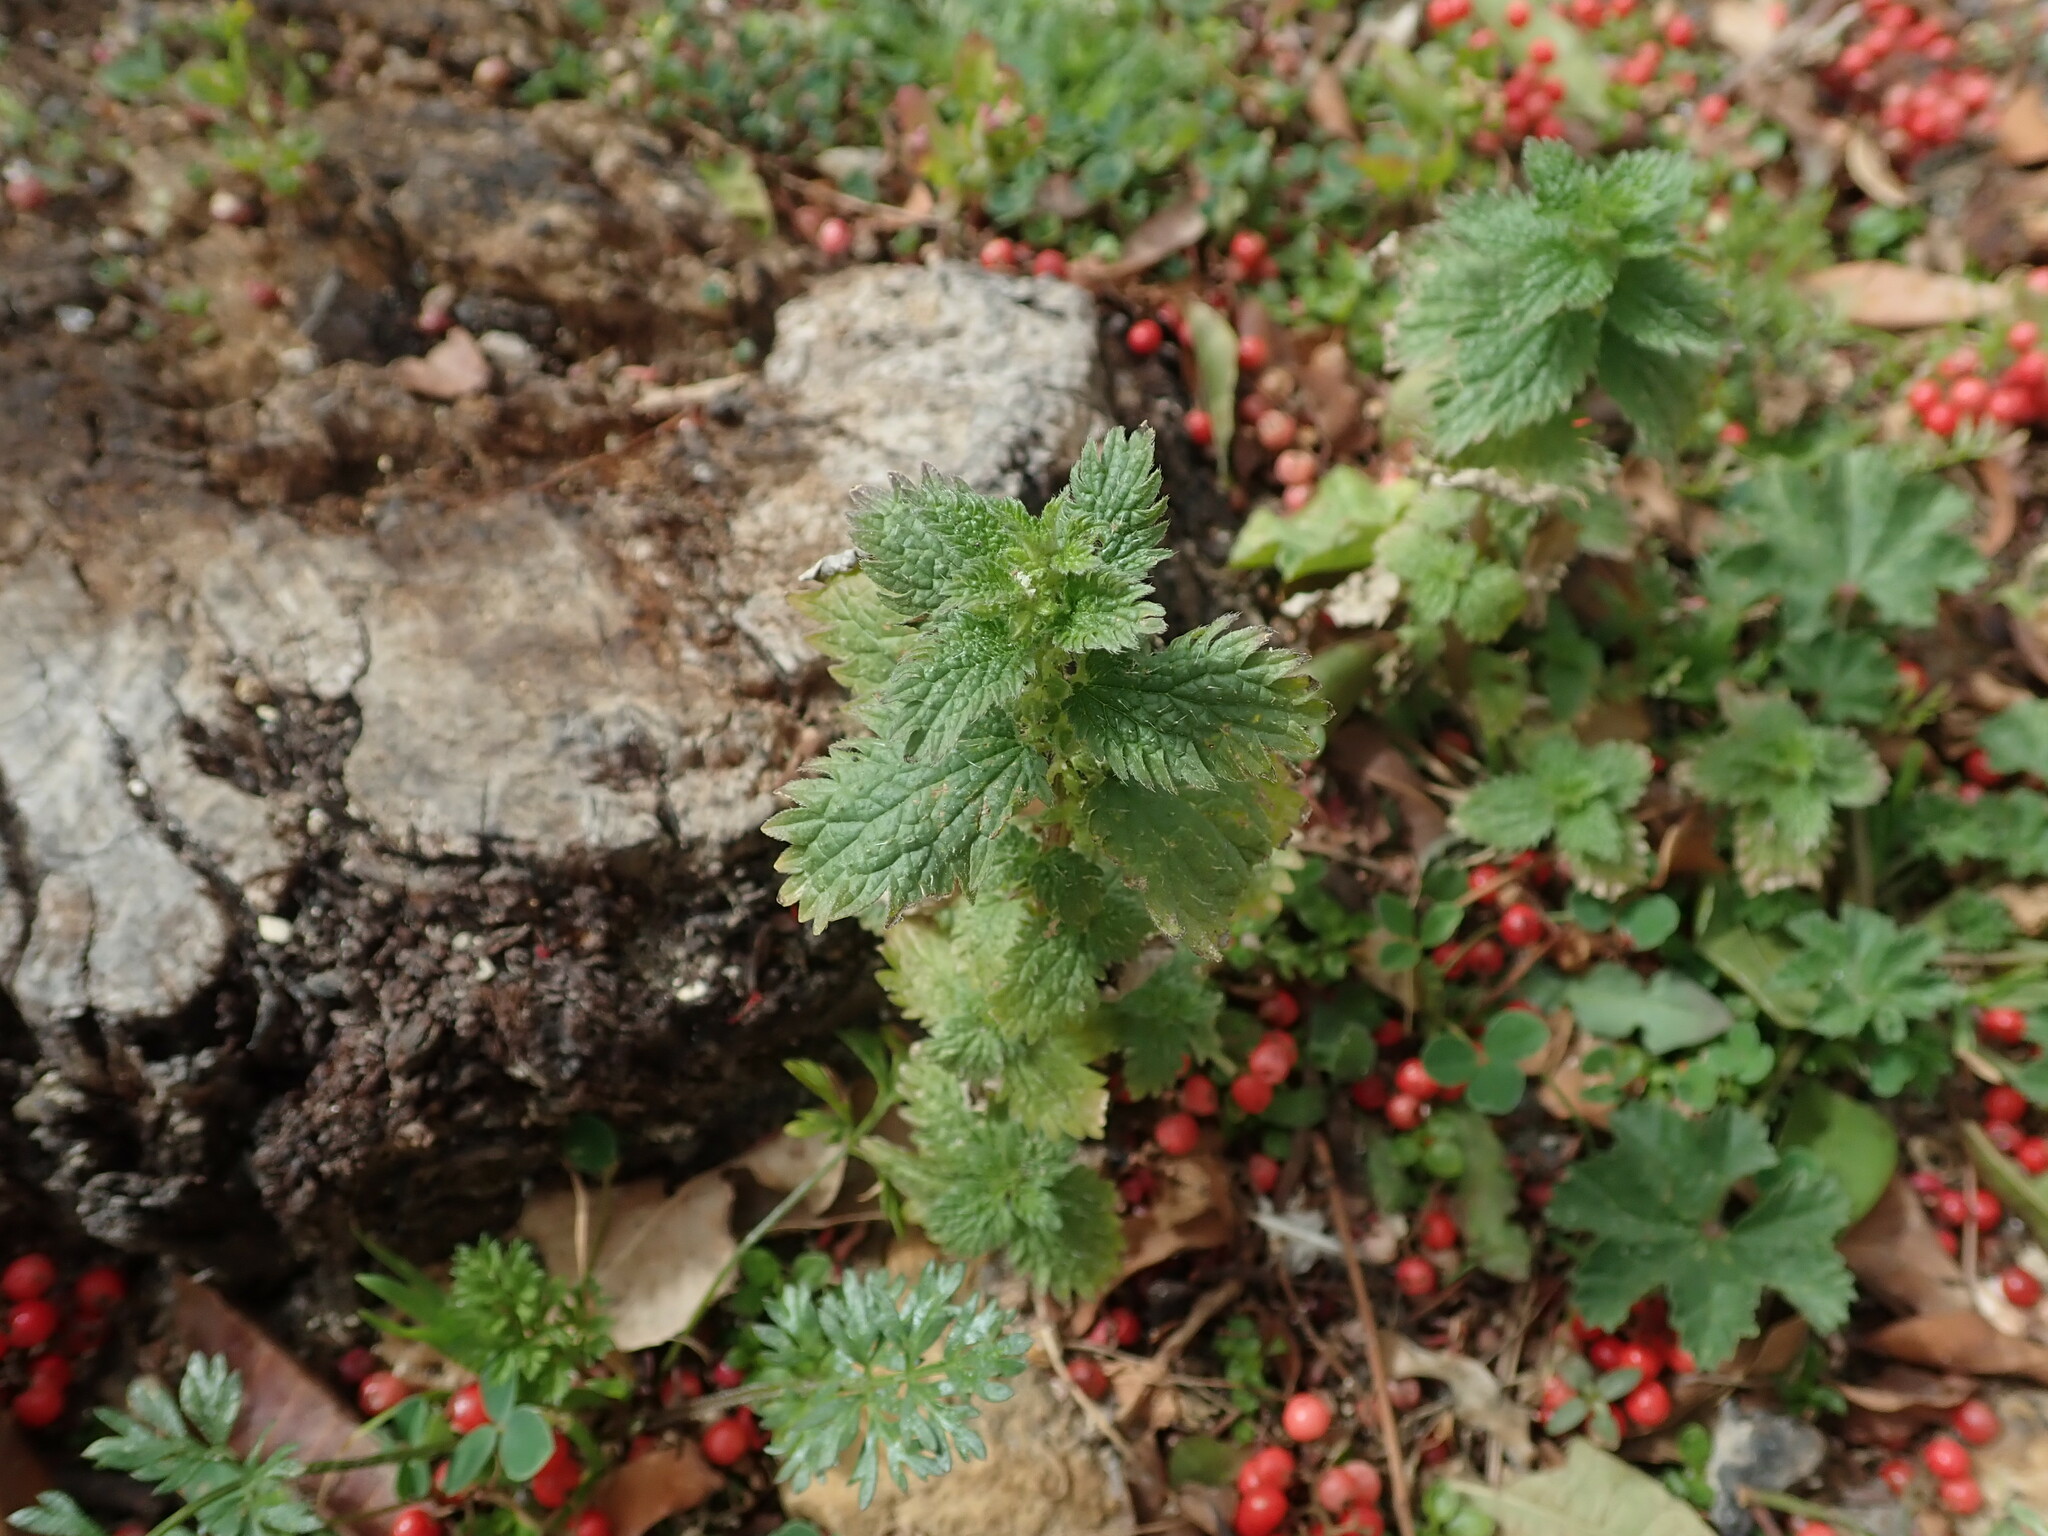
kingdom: Plantae
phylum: Tracheophyta
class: Magnoliopsida
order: Rosales
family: Urticaceae
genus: Urtica
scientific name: Urtica urens
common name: Dwarf nettle
